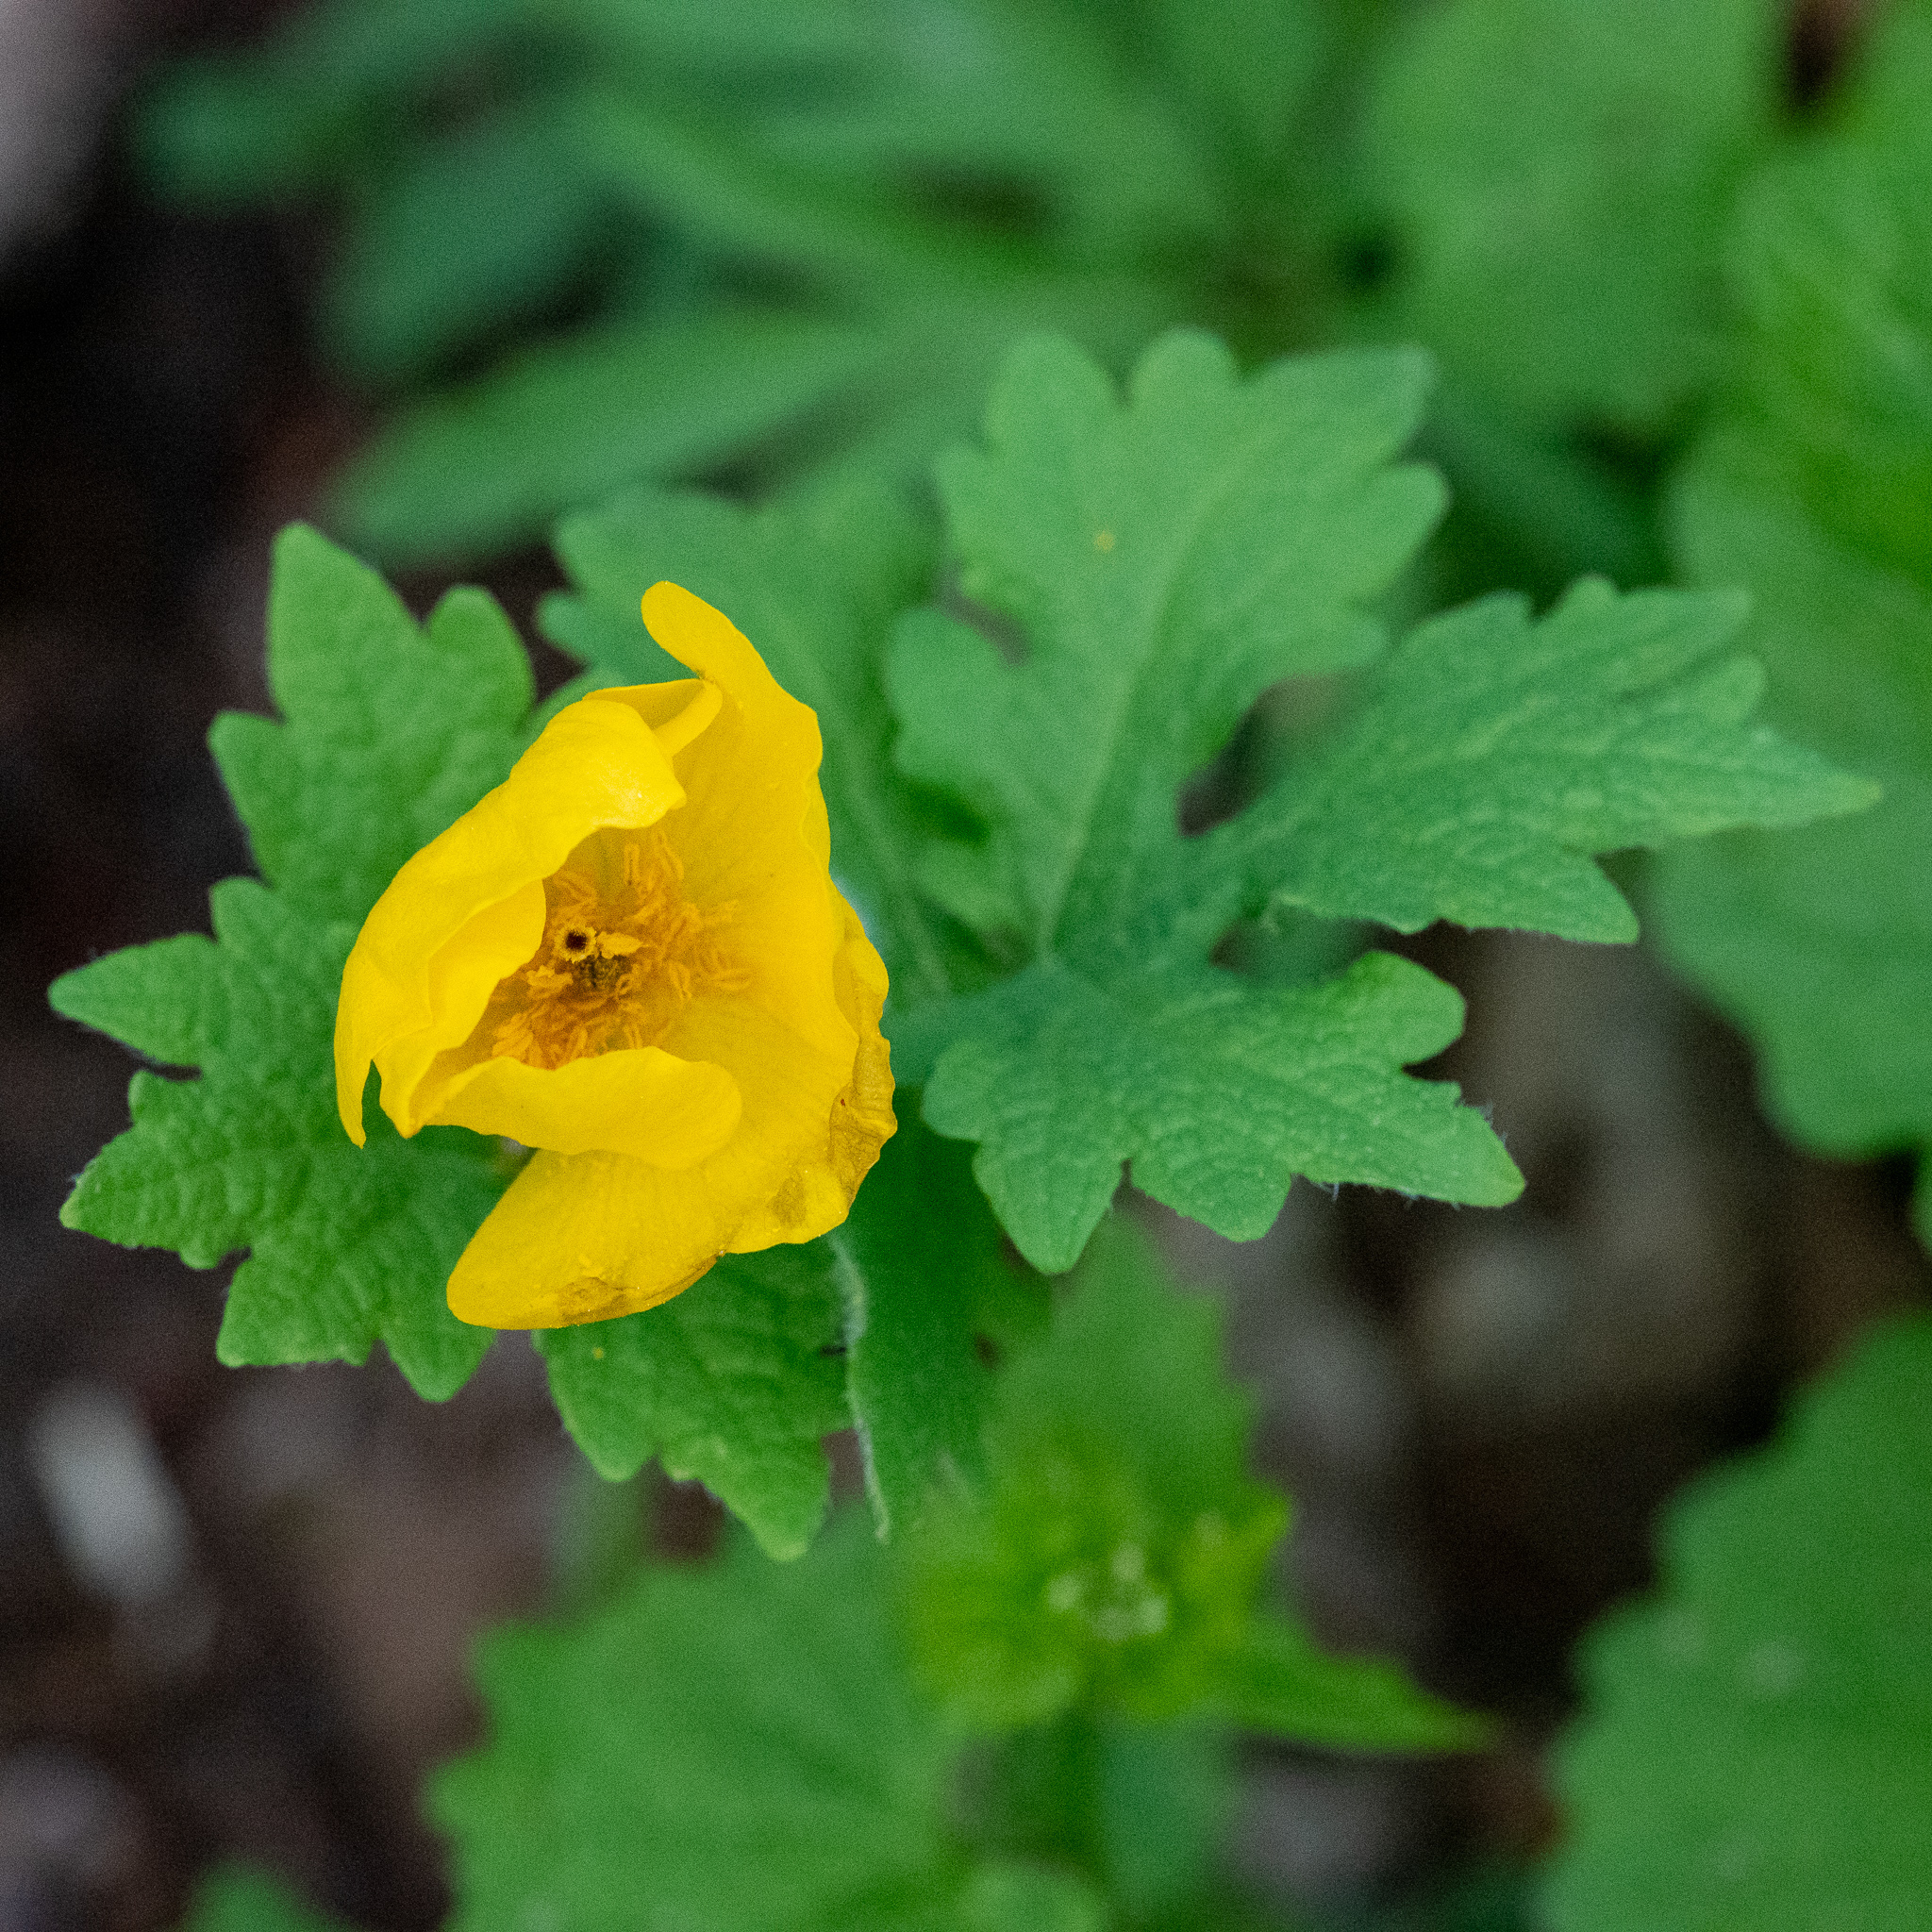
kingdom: Plantae
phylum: Tracheophyta
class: Magnoliopsida
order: Ranunculales
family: Papaveraceae
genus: Stylophorum
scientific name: Stylophorum diphyllum
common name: Celandine poppy
